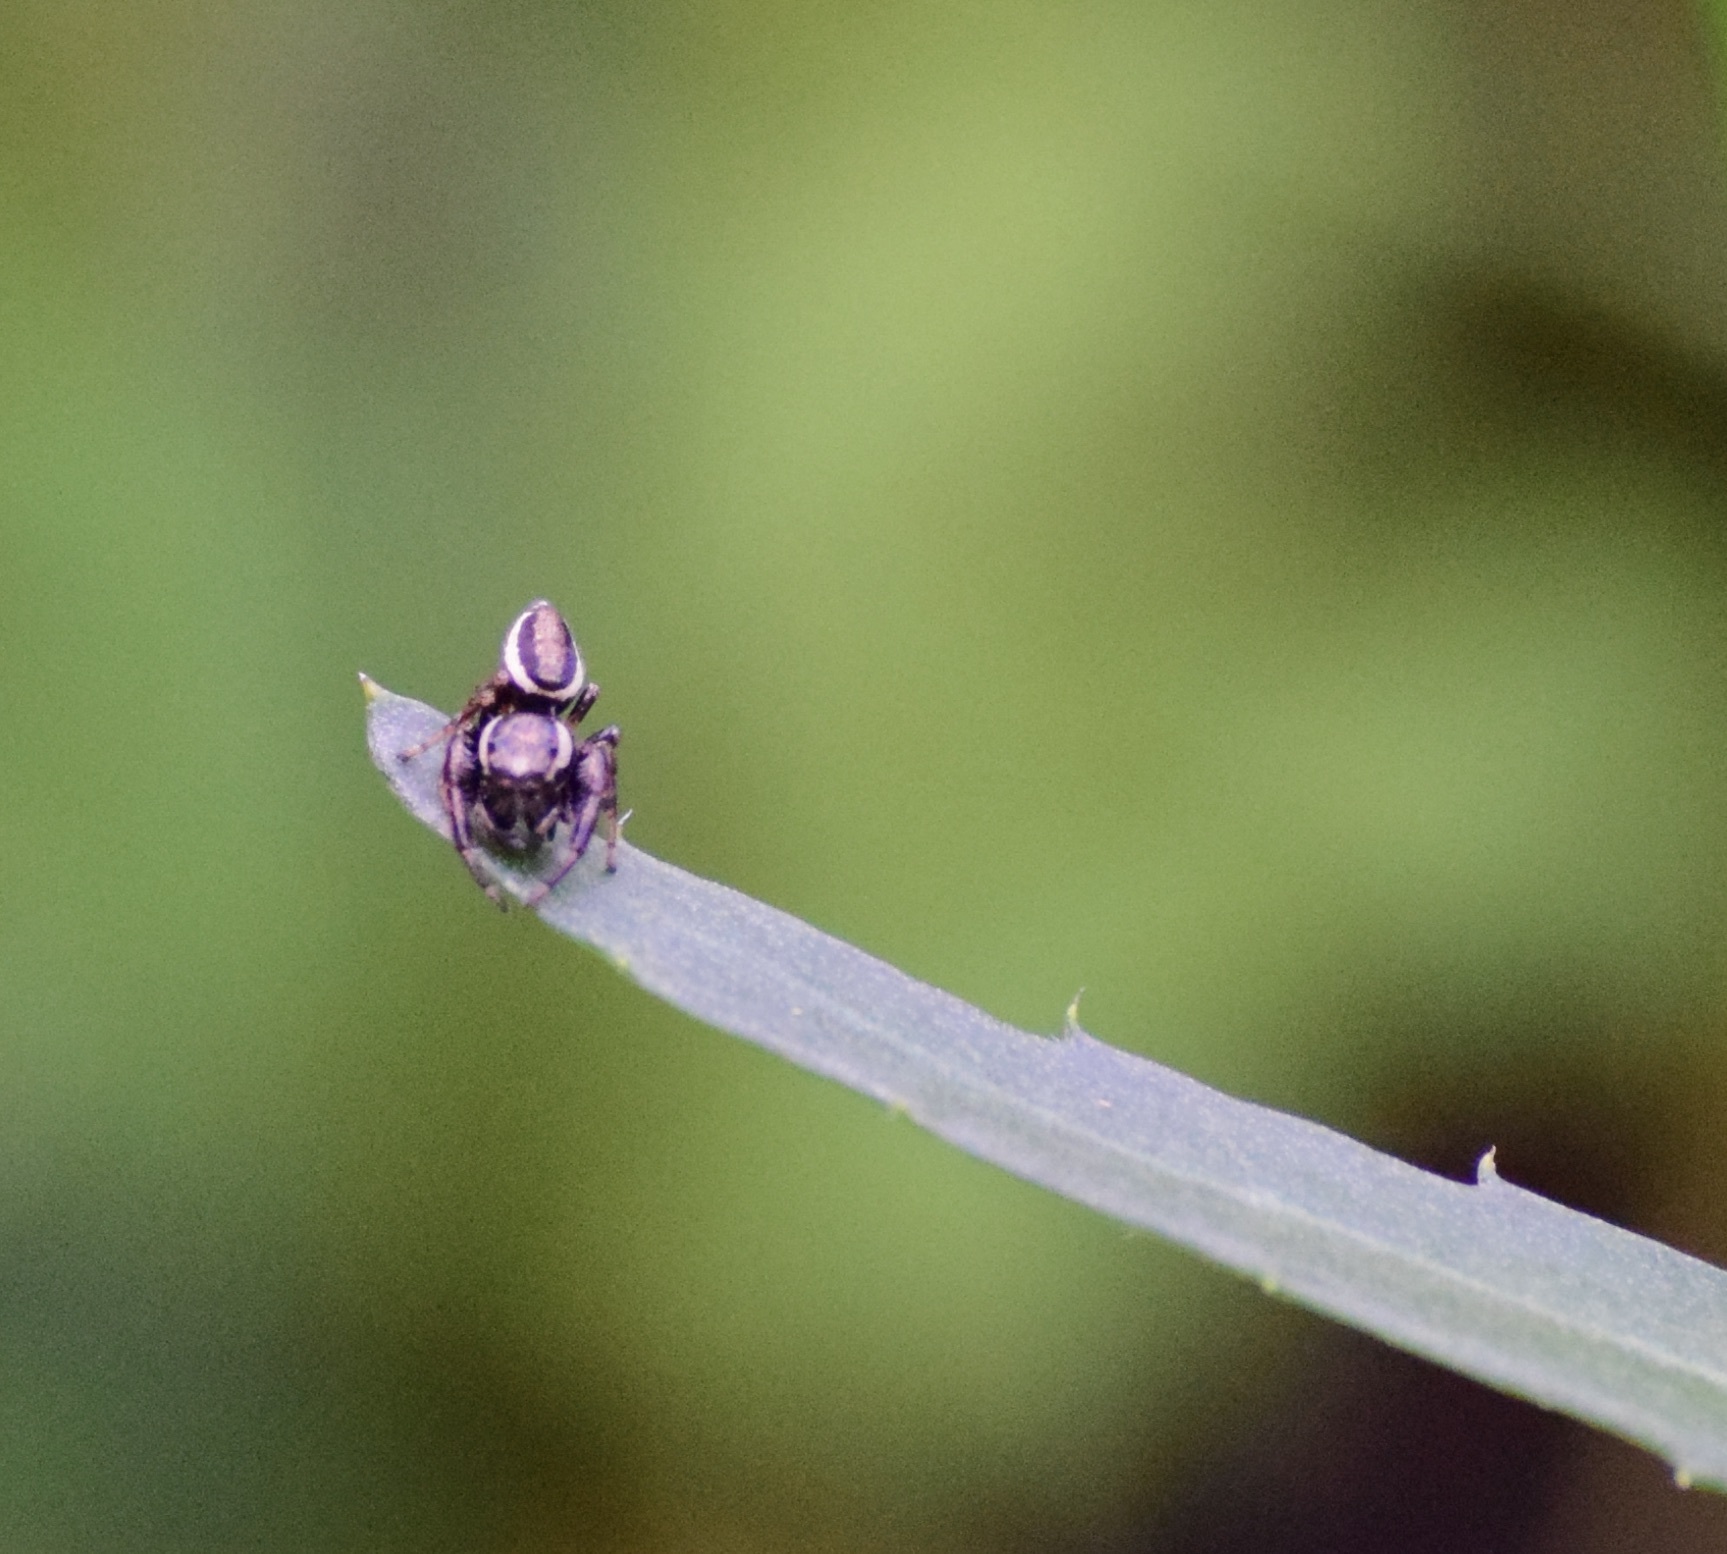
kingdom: Animalia
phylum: Arthropoda
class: Arachnida
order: Araneae
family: Salticidae
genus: Eris
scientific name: Eris militaris
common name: Bronze jumper
